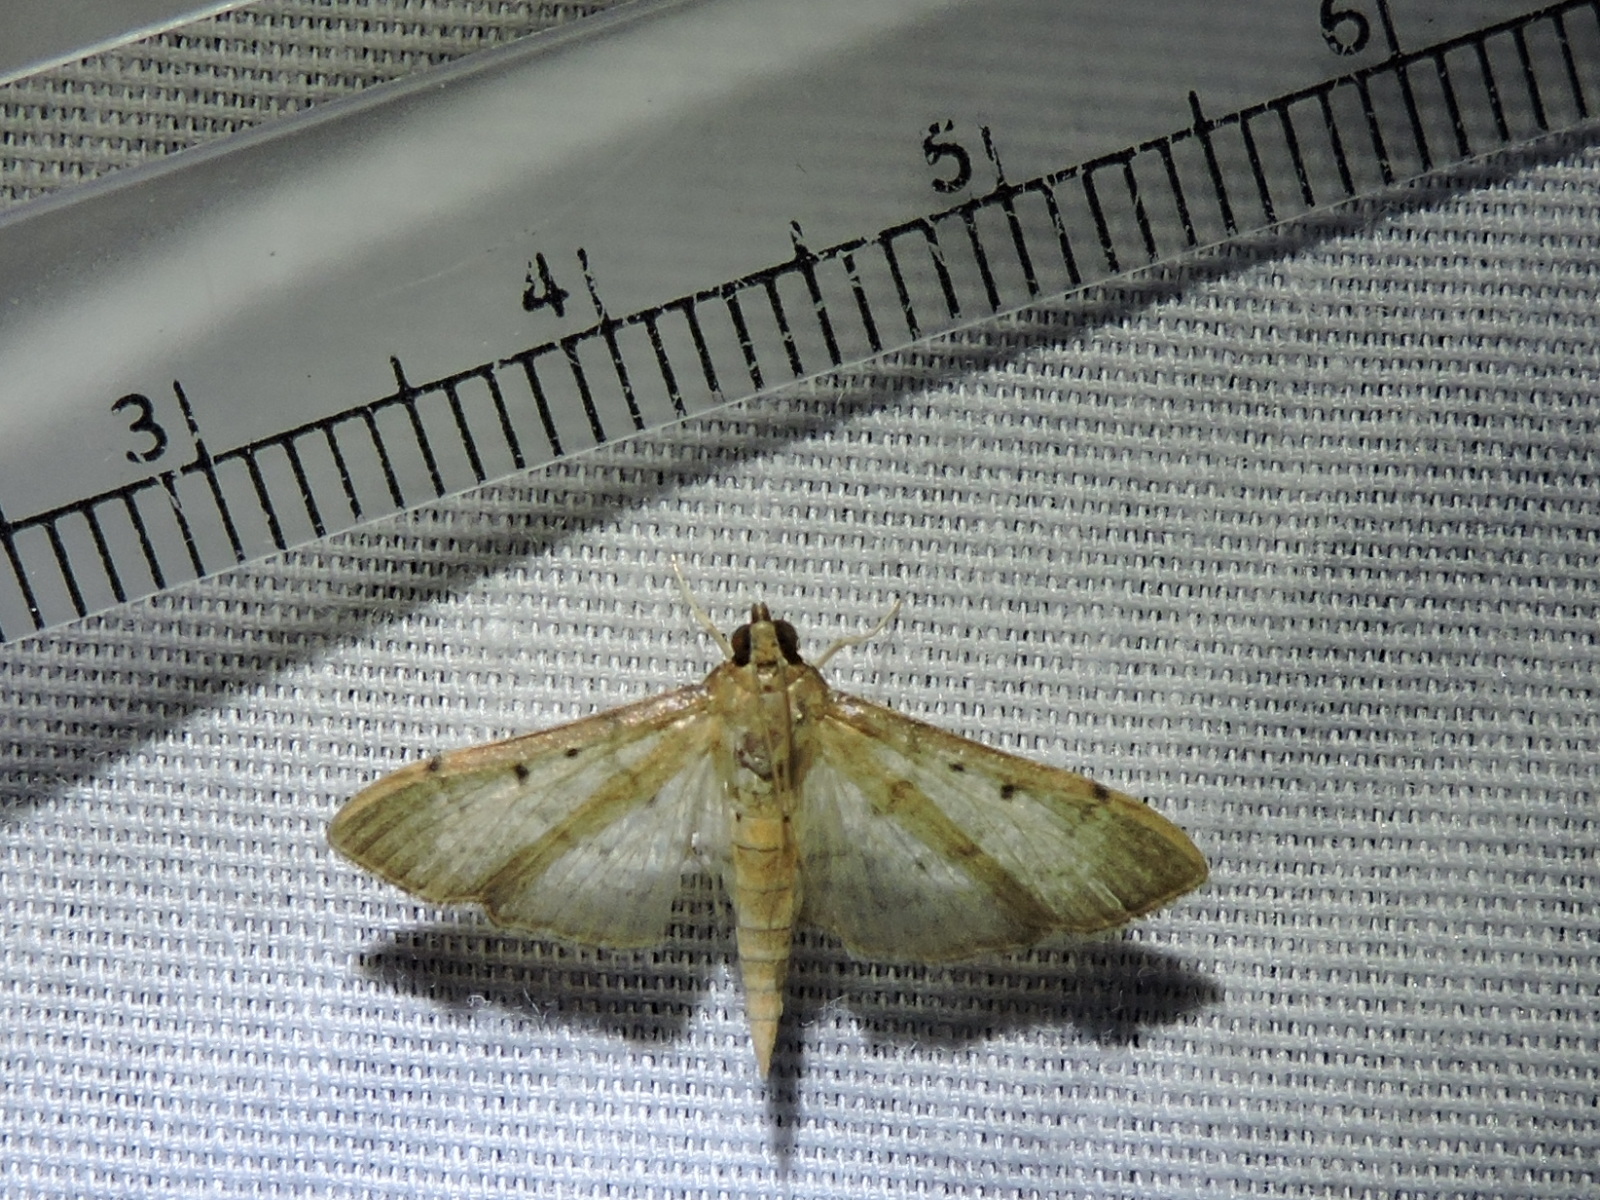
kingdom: Animalia
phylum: Arthropoda
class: Insecta
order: Lepidoptera
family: Crambidae
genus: Herpetogramma
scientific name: Herpetogramma bipunctalis
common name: Southern beet webworm
